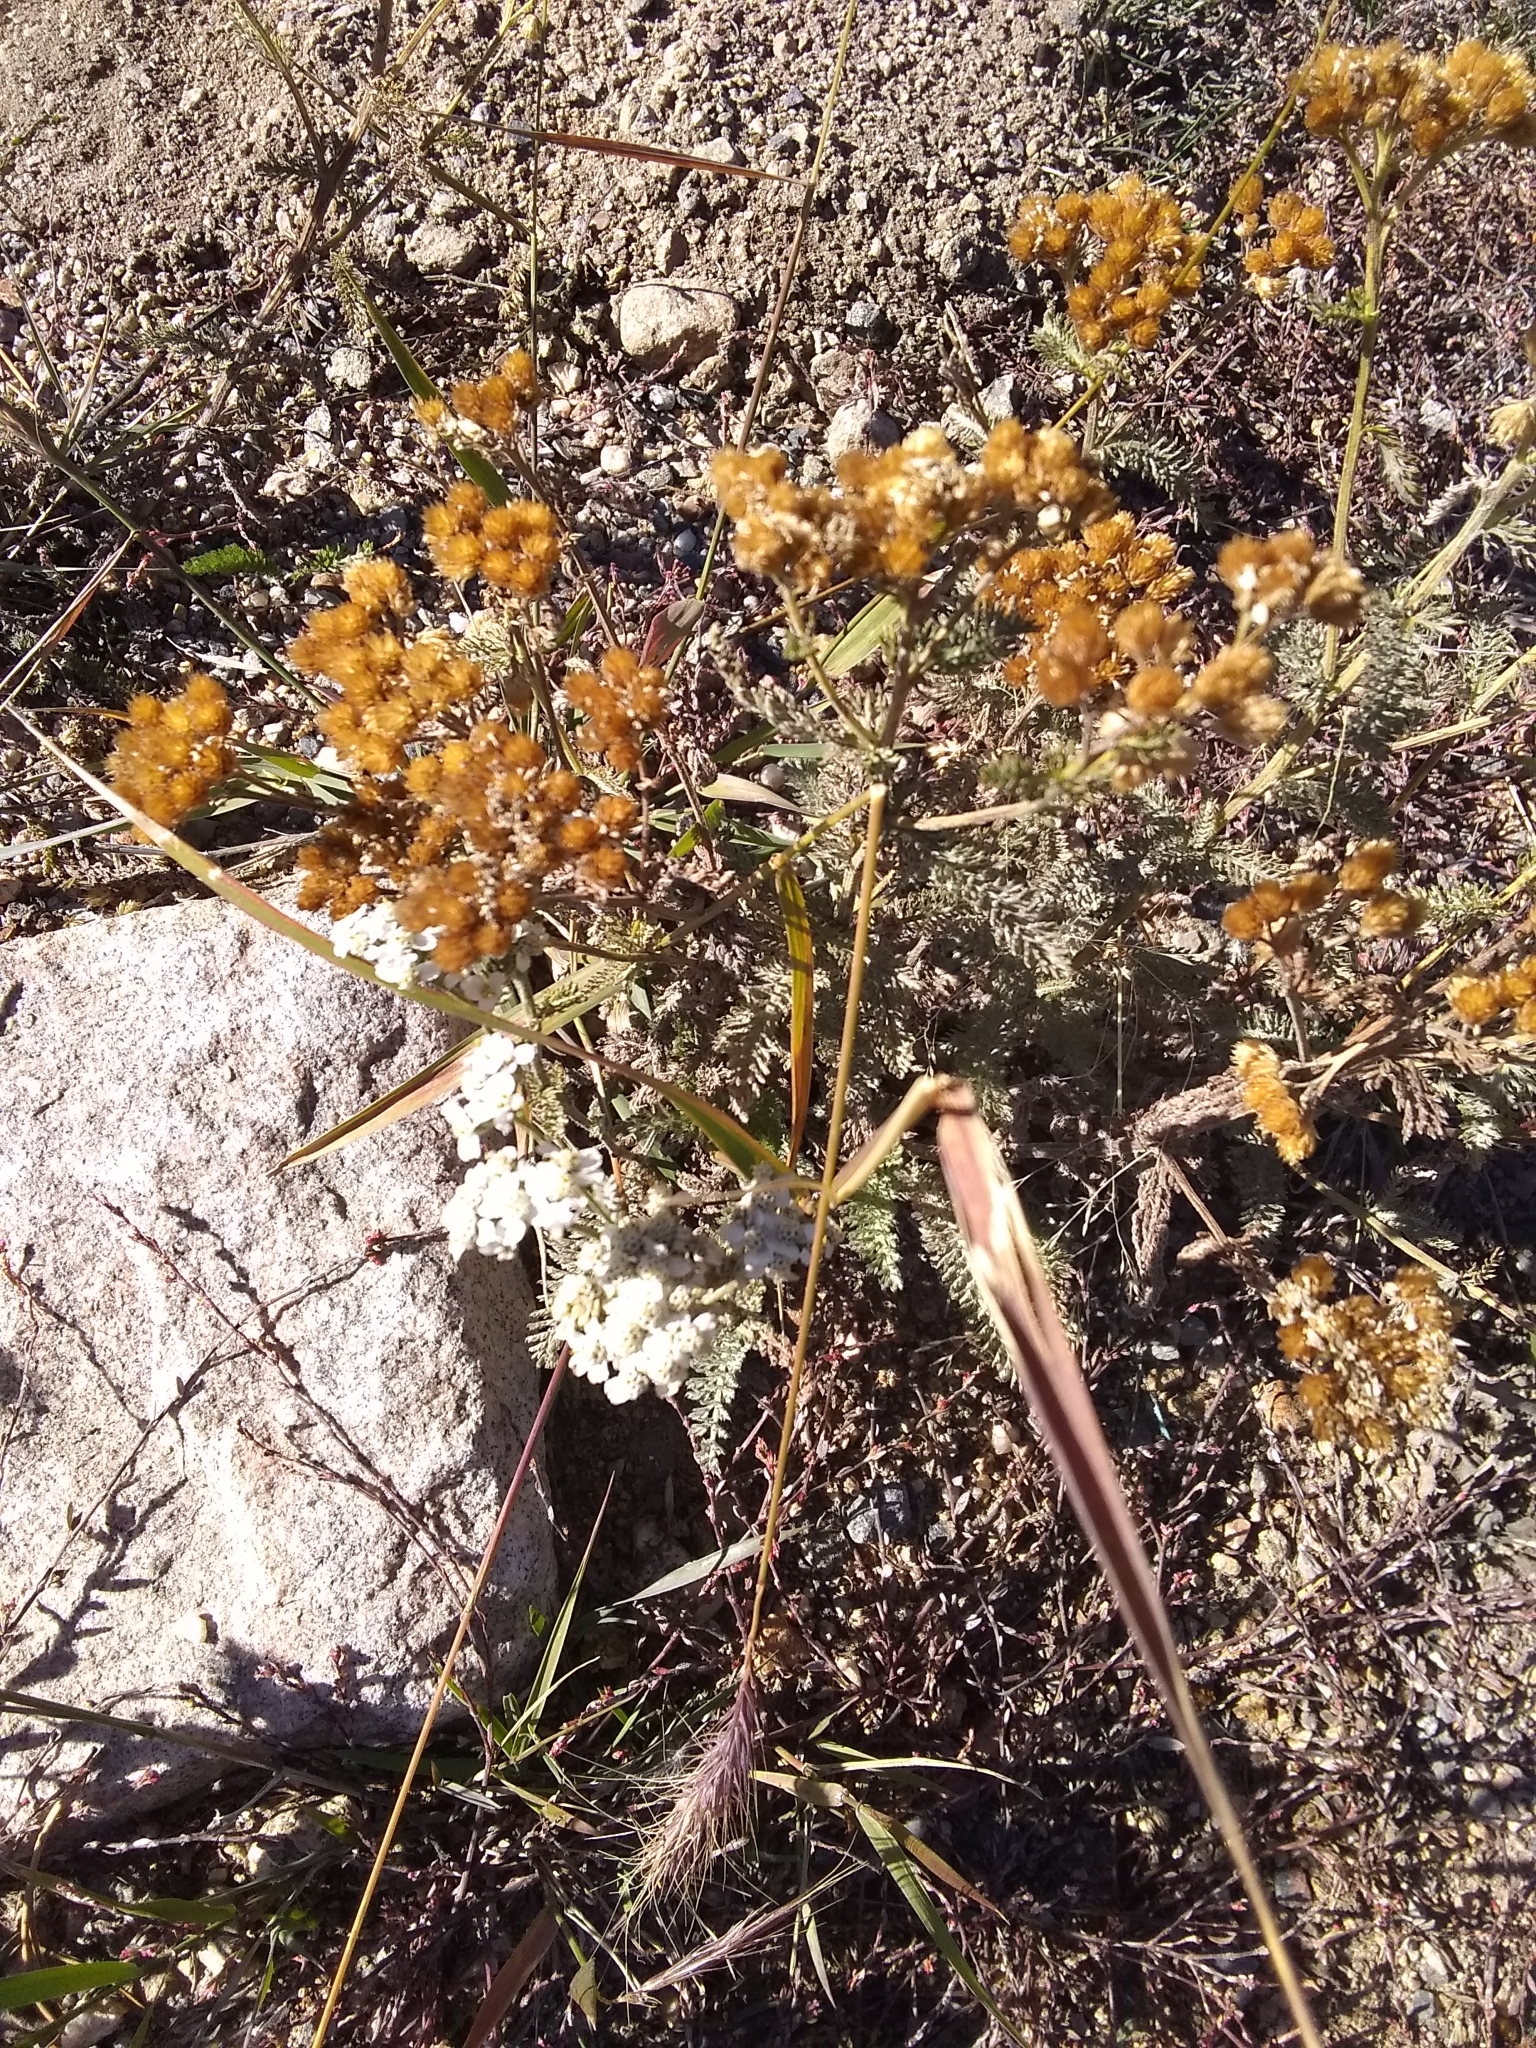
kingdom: Plantae
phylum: Tracheophyta
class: Magnoliopsida
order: Asterales
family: Asteraceae
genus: Achillea
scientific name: Achillea millefolium
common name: Yarrow
